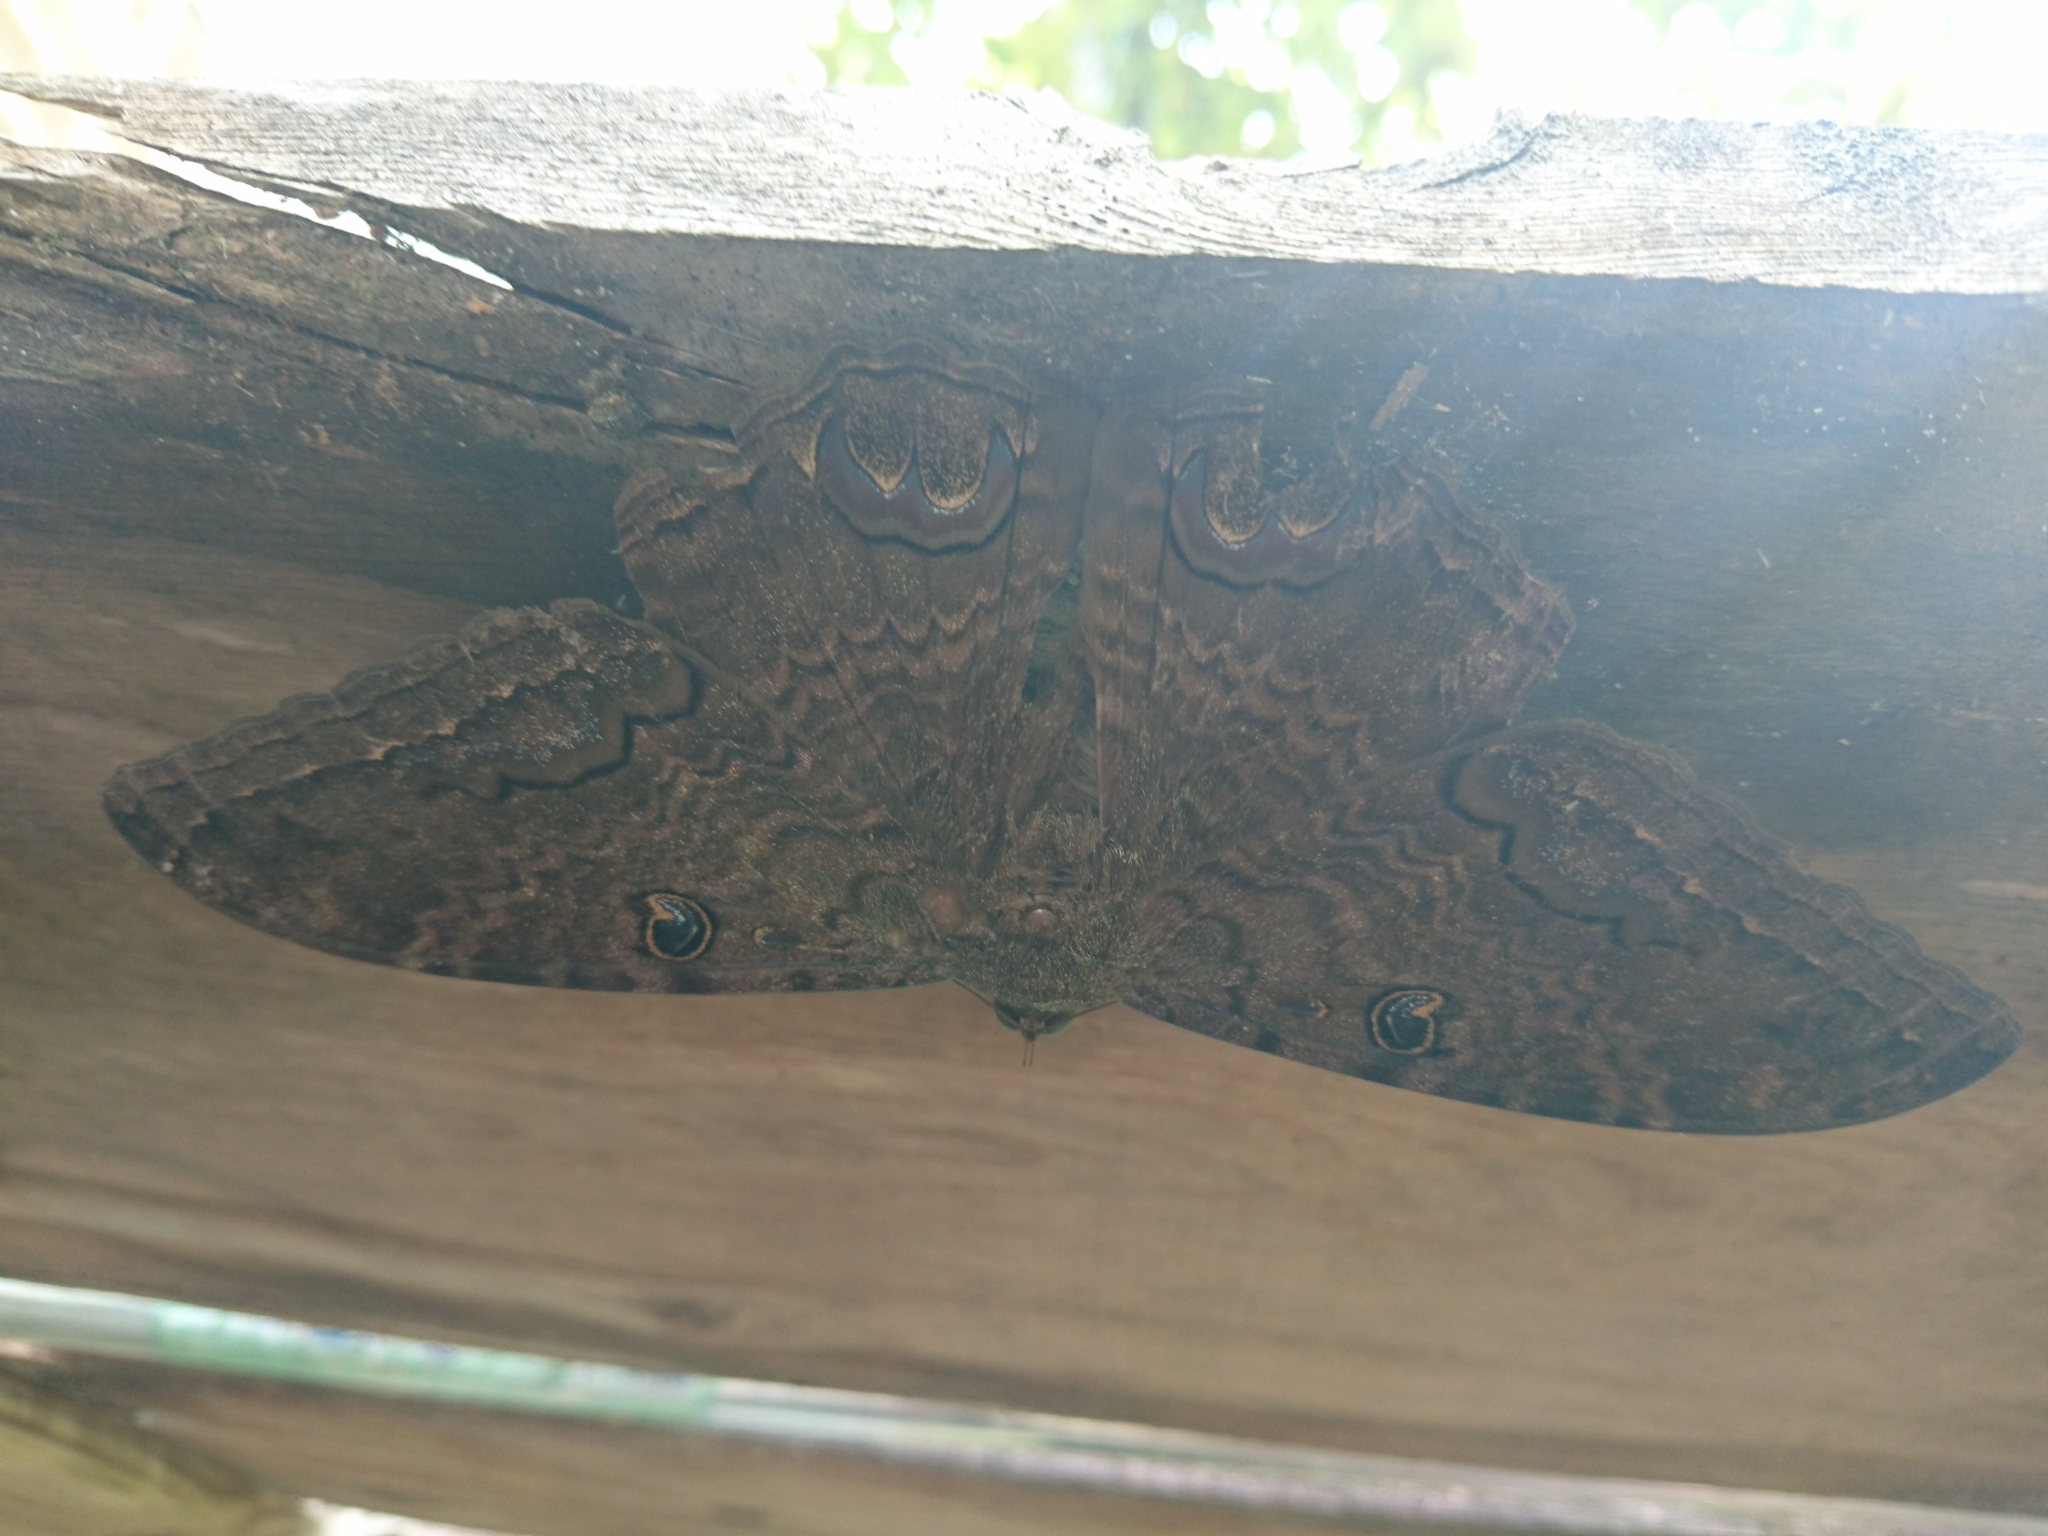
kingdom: Animalia
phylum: Arthropoda
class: Insecta
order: Lepidoptera
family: Erebidae
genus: Ascalapha
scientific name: Ascalapha odorata
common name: Black witch
